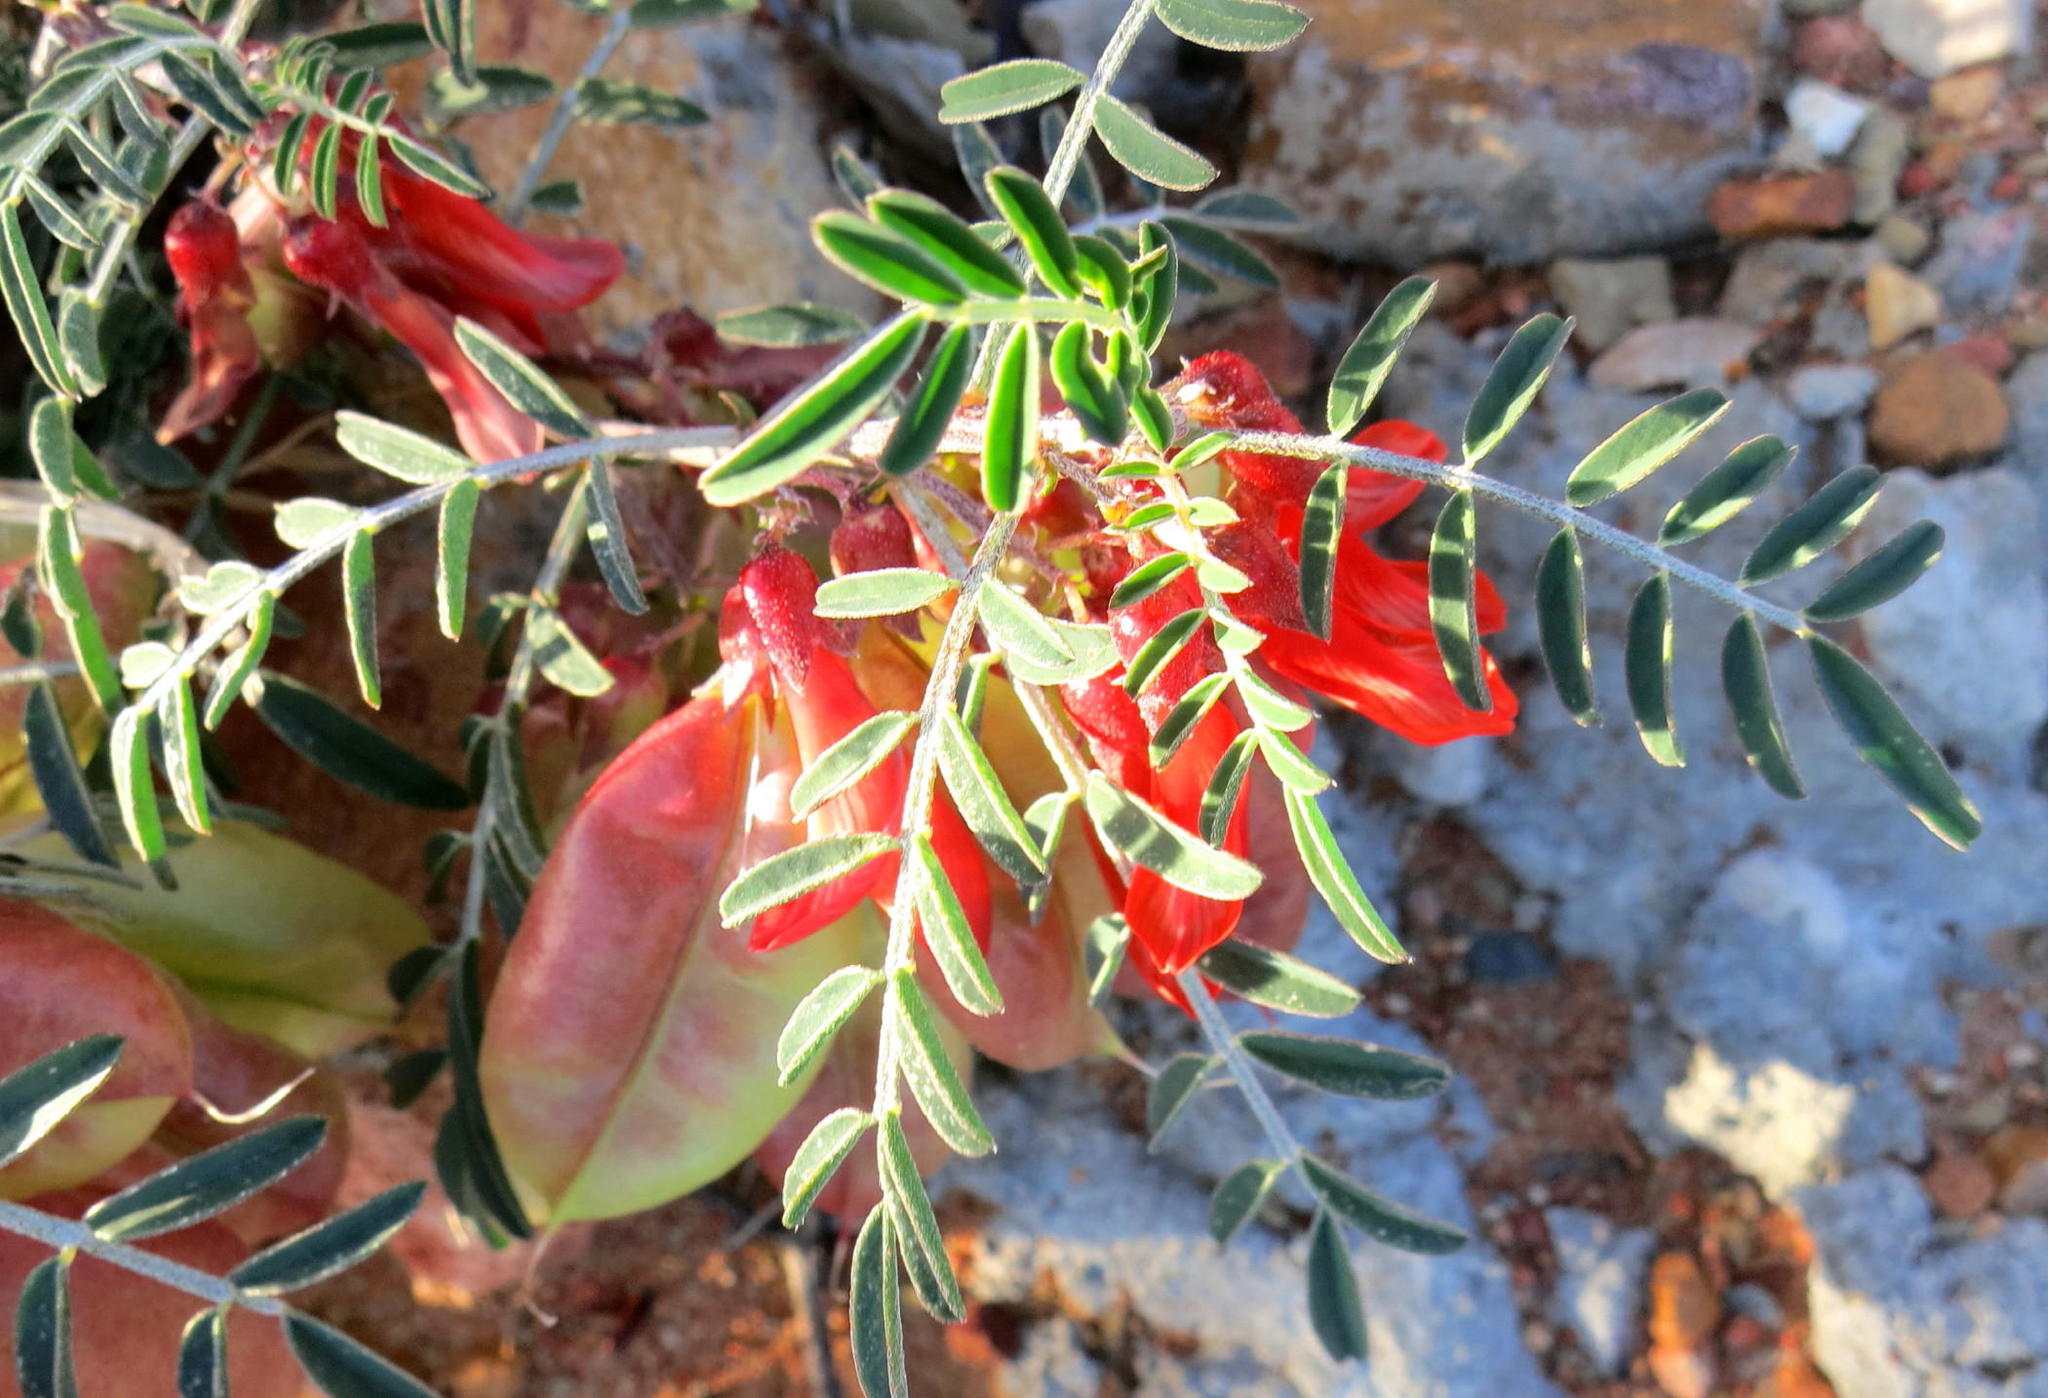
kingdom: Plantae
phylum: Tracheophyta
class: Magnoliopsida
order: Fabales
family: Fabaceae
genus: Lessertia
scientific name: Lessertia frutescens
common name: Balloon-pea
